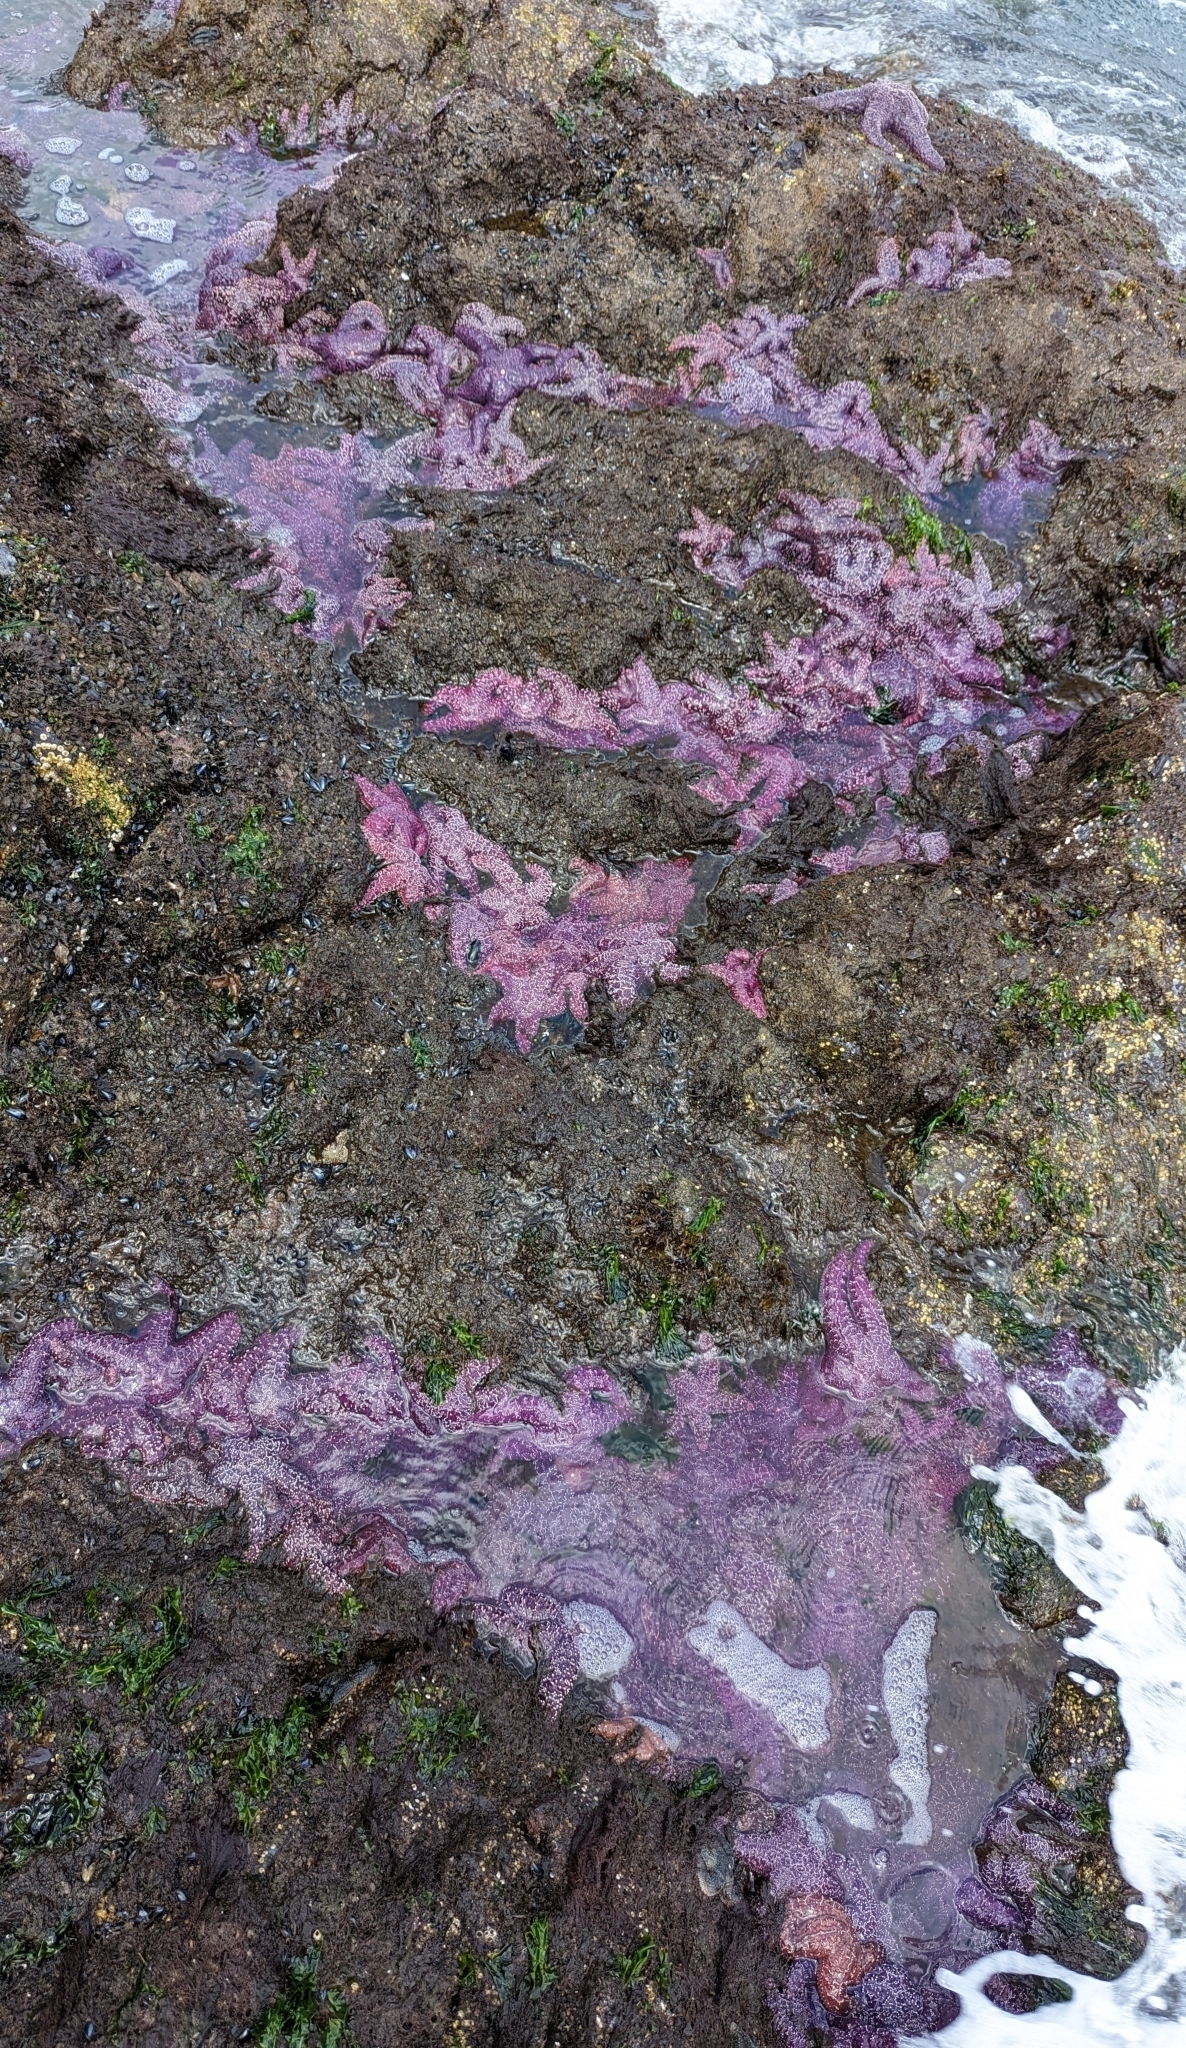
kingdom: Animalia
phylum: Echinodermata
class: Asteroidea
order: Forcipulatida
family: Asteriidae
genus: Pisaster
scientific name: Pisaster ochraceus
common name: Ochre stars
